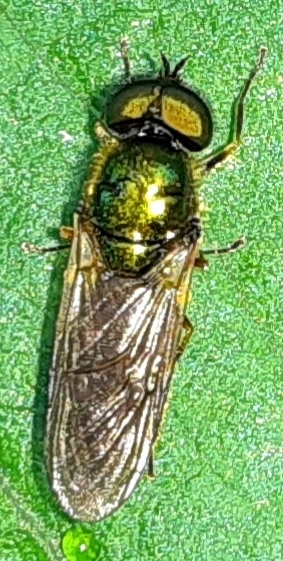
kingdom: Animalia
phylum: Arthropoda
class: Insecta
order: Diptera
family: Stratiomyidae
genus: Chloromyia
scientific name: Chloromyia formosa
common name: Soldier fly
